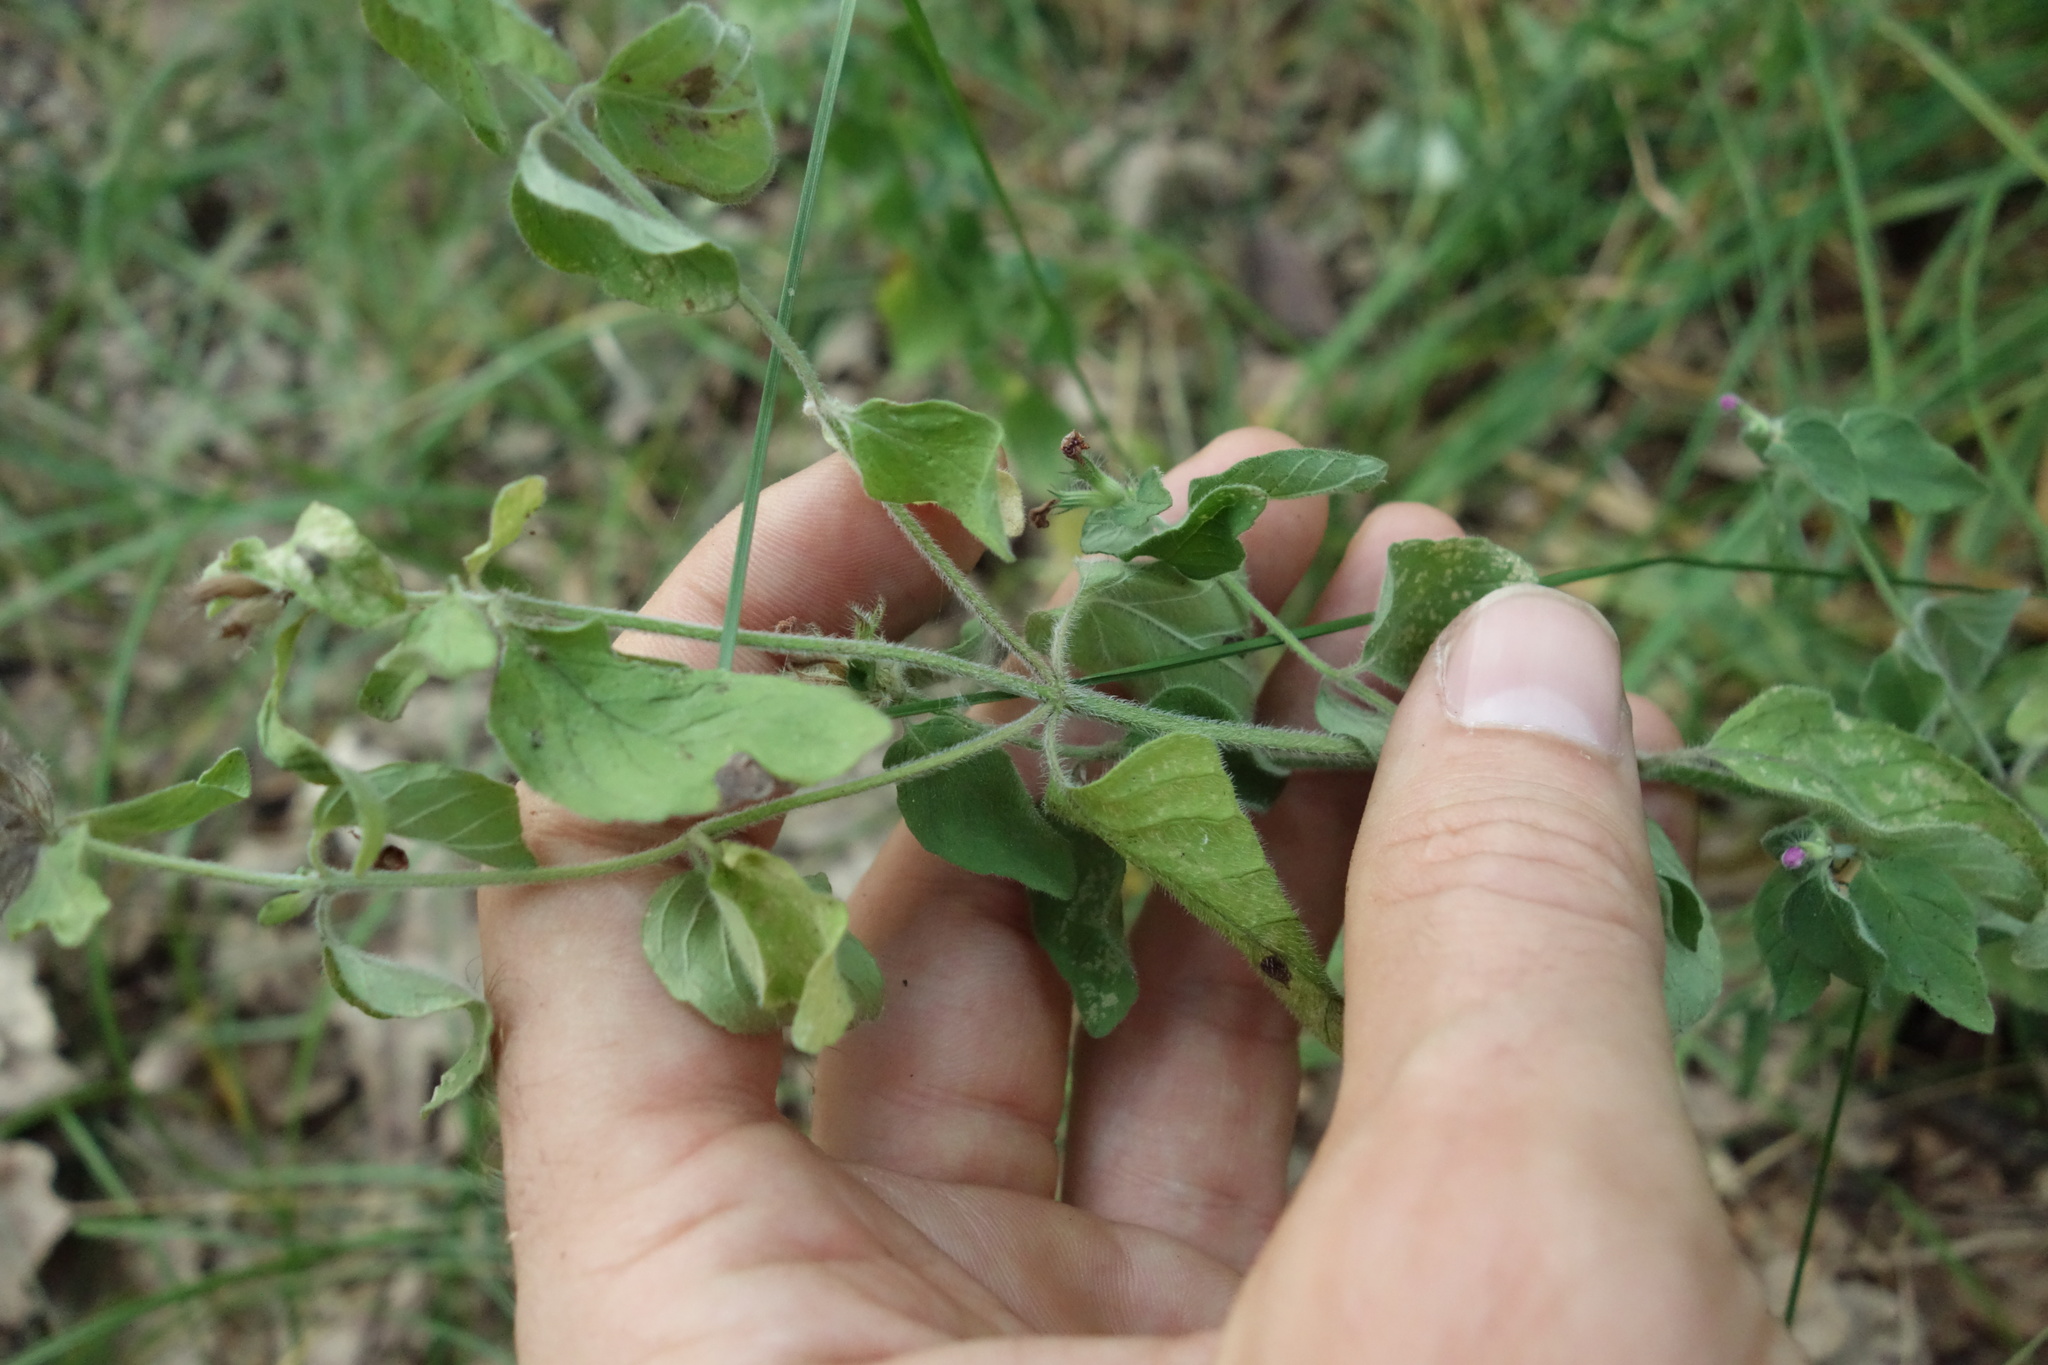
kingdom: Plantae
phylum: Tracheophyta
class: Magnoliopsida
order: Lamiales
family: Lamiaceae
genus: Clinopodium
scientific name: Clinopodium vulgare
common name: Wild basil
